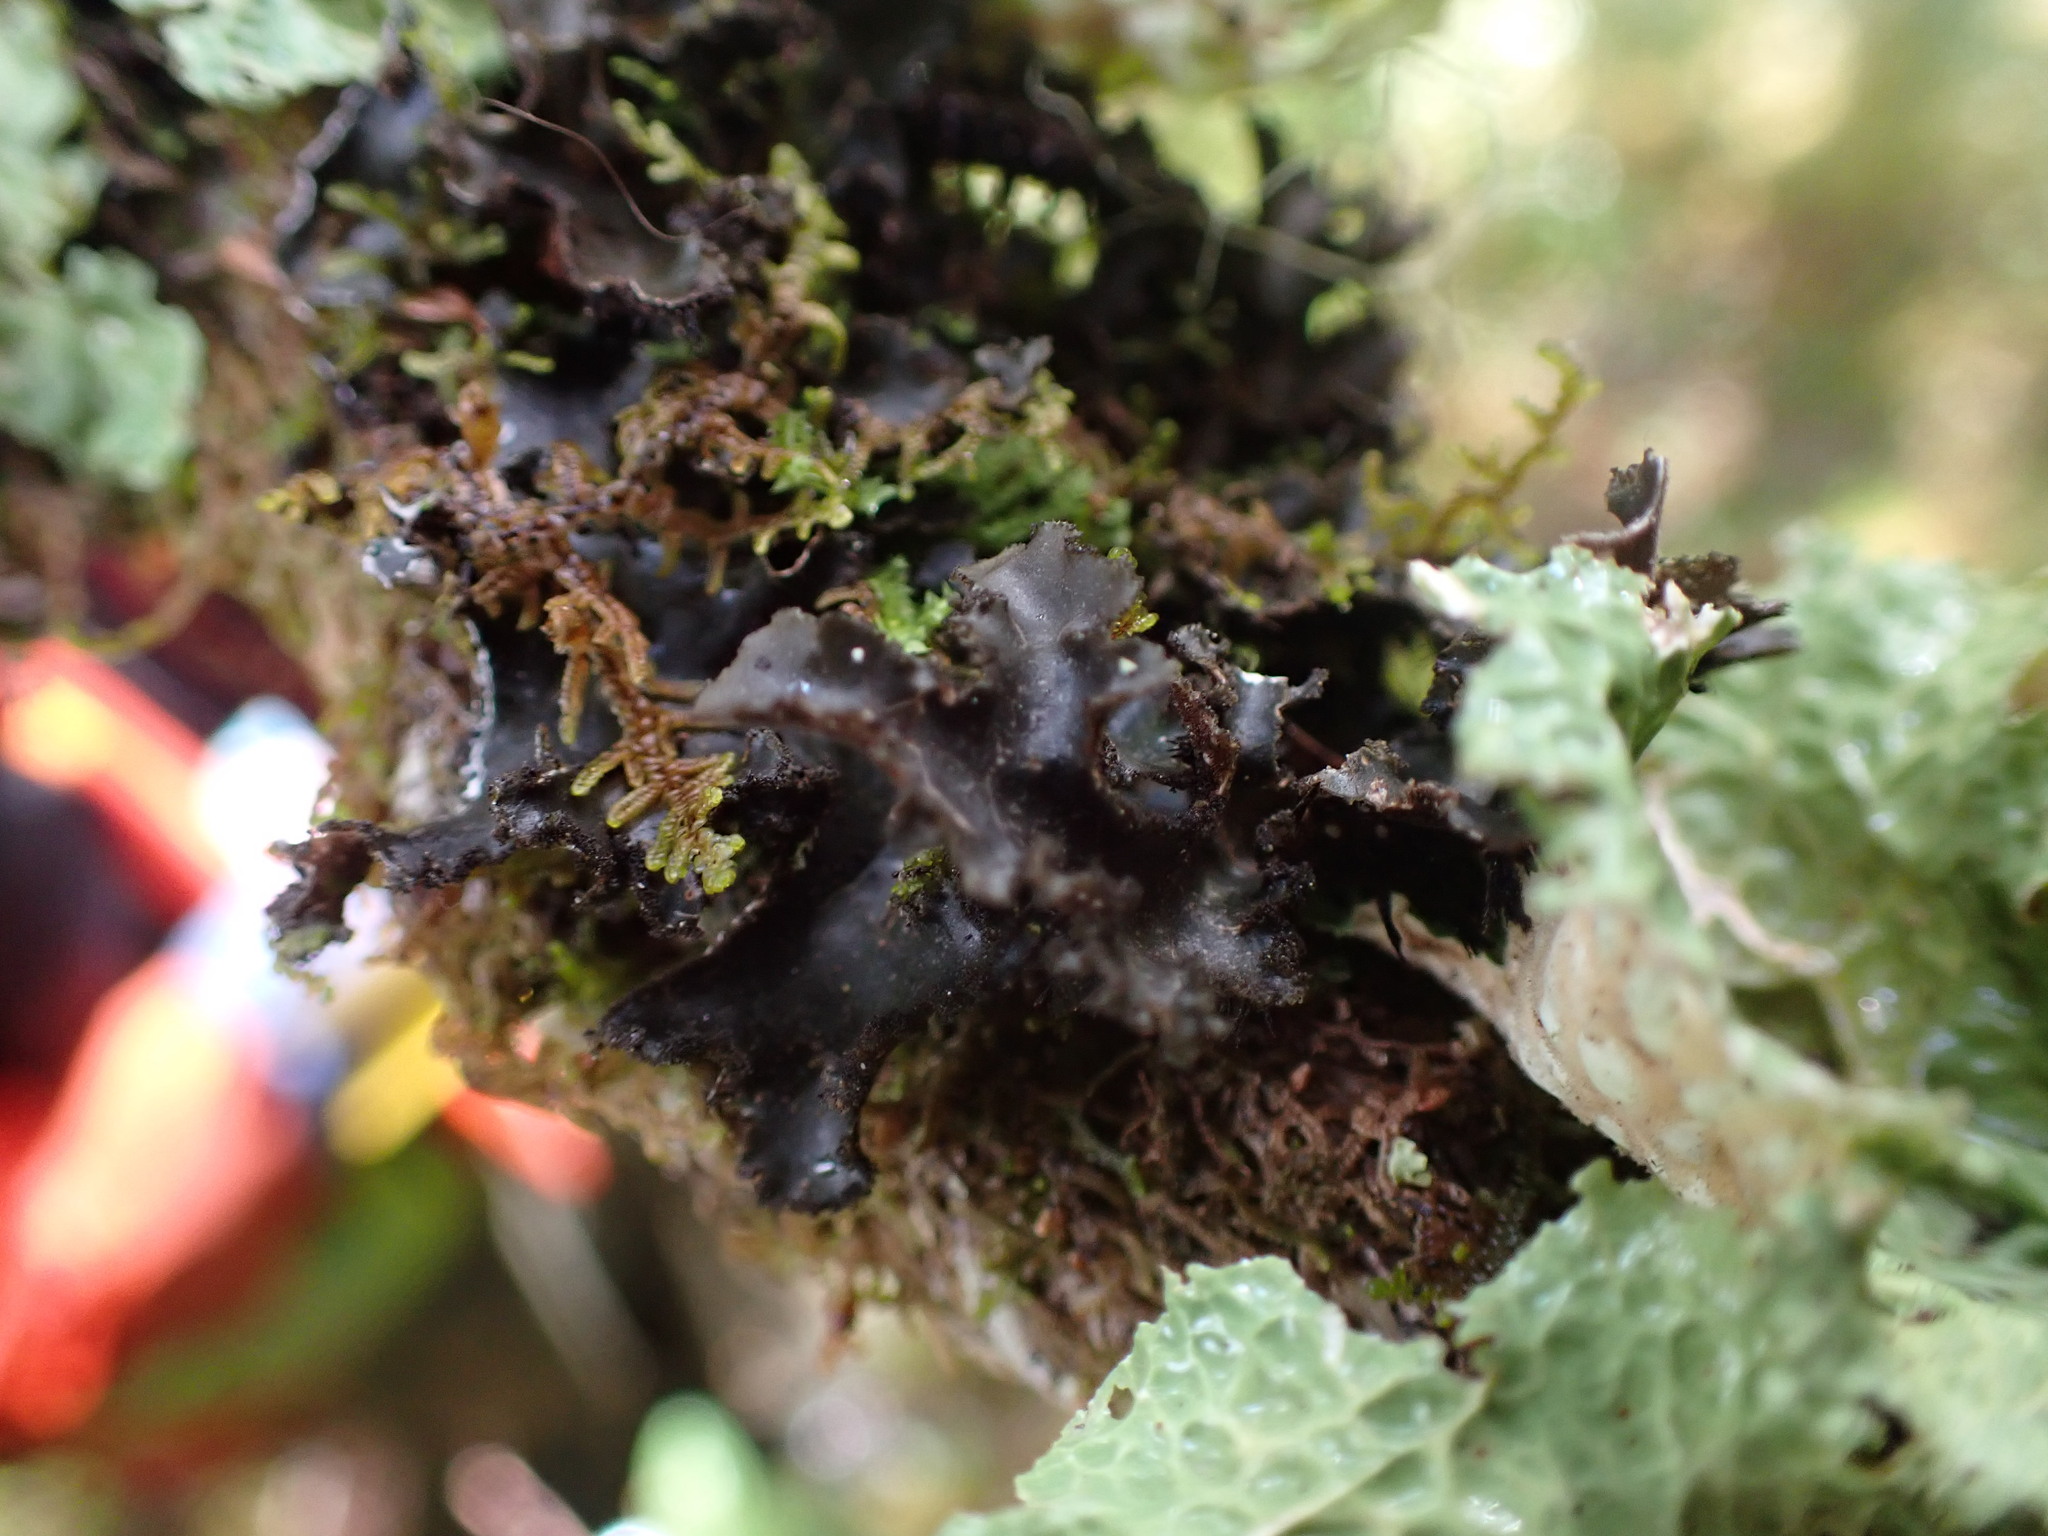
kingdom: Fungi
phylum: Ascomycota
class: Lecanoromycetes
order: Peltigerales
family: Lobariaceae
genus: Sticta
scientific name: Sticta rhizinata
